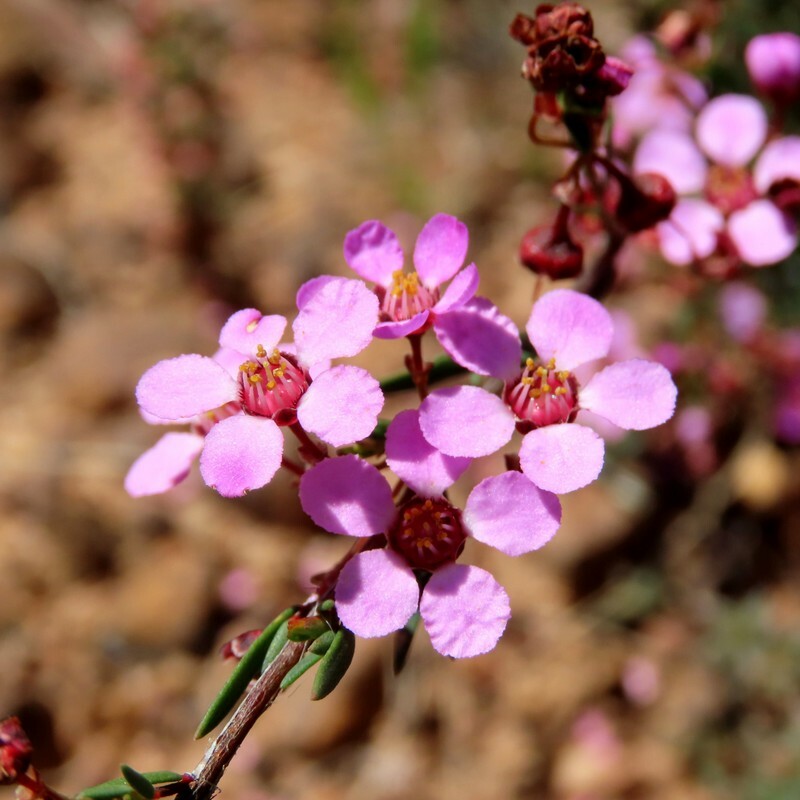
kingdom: Plantae
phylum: Tracheophyta
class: Magnoliopsida
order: Myrtales
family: Myrtaceae
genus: Euryomyrtus
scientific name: Euryomyrtus ramosissima
